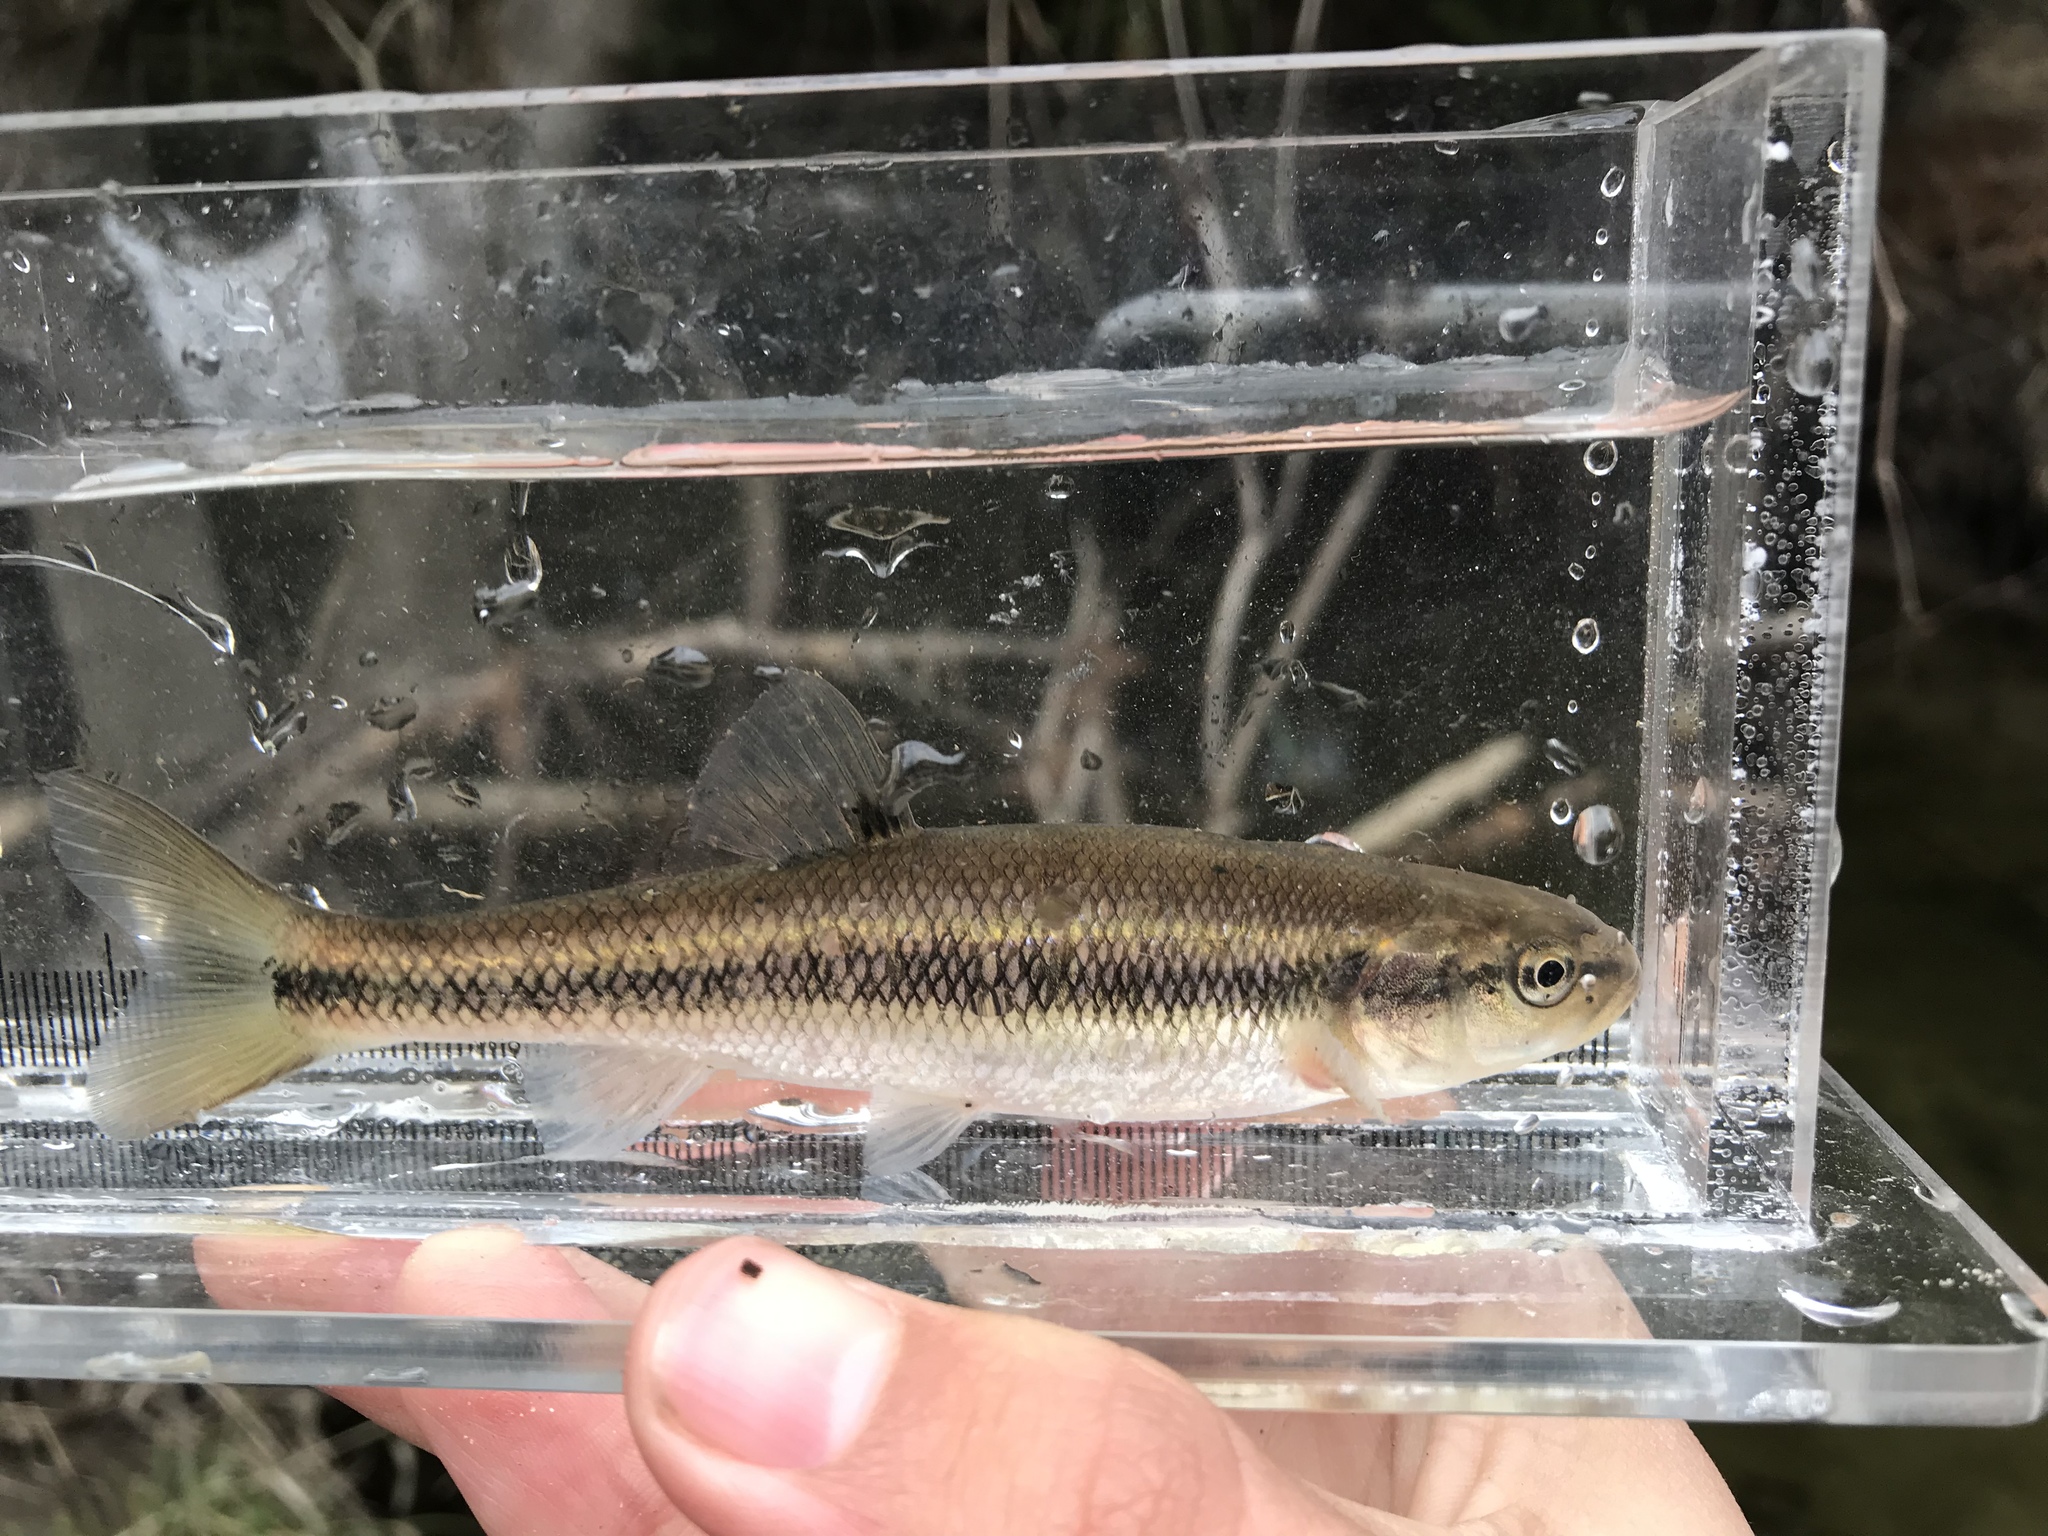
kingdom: Animalia
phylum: Chordata
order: Cypriniformes
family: Cyprinidae
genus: Semotilus
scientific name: Semotilus atromaculatus
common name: Creek chub
